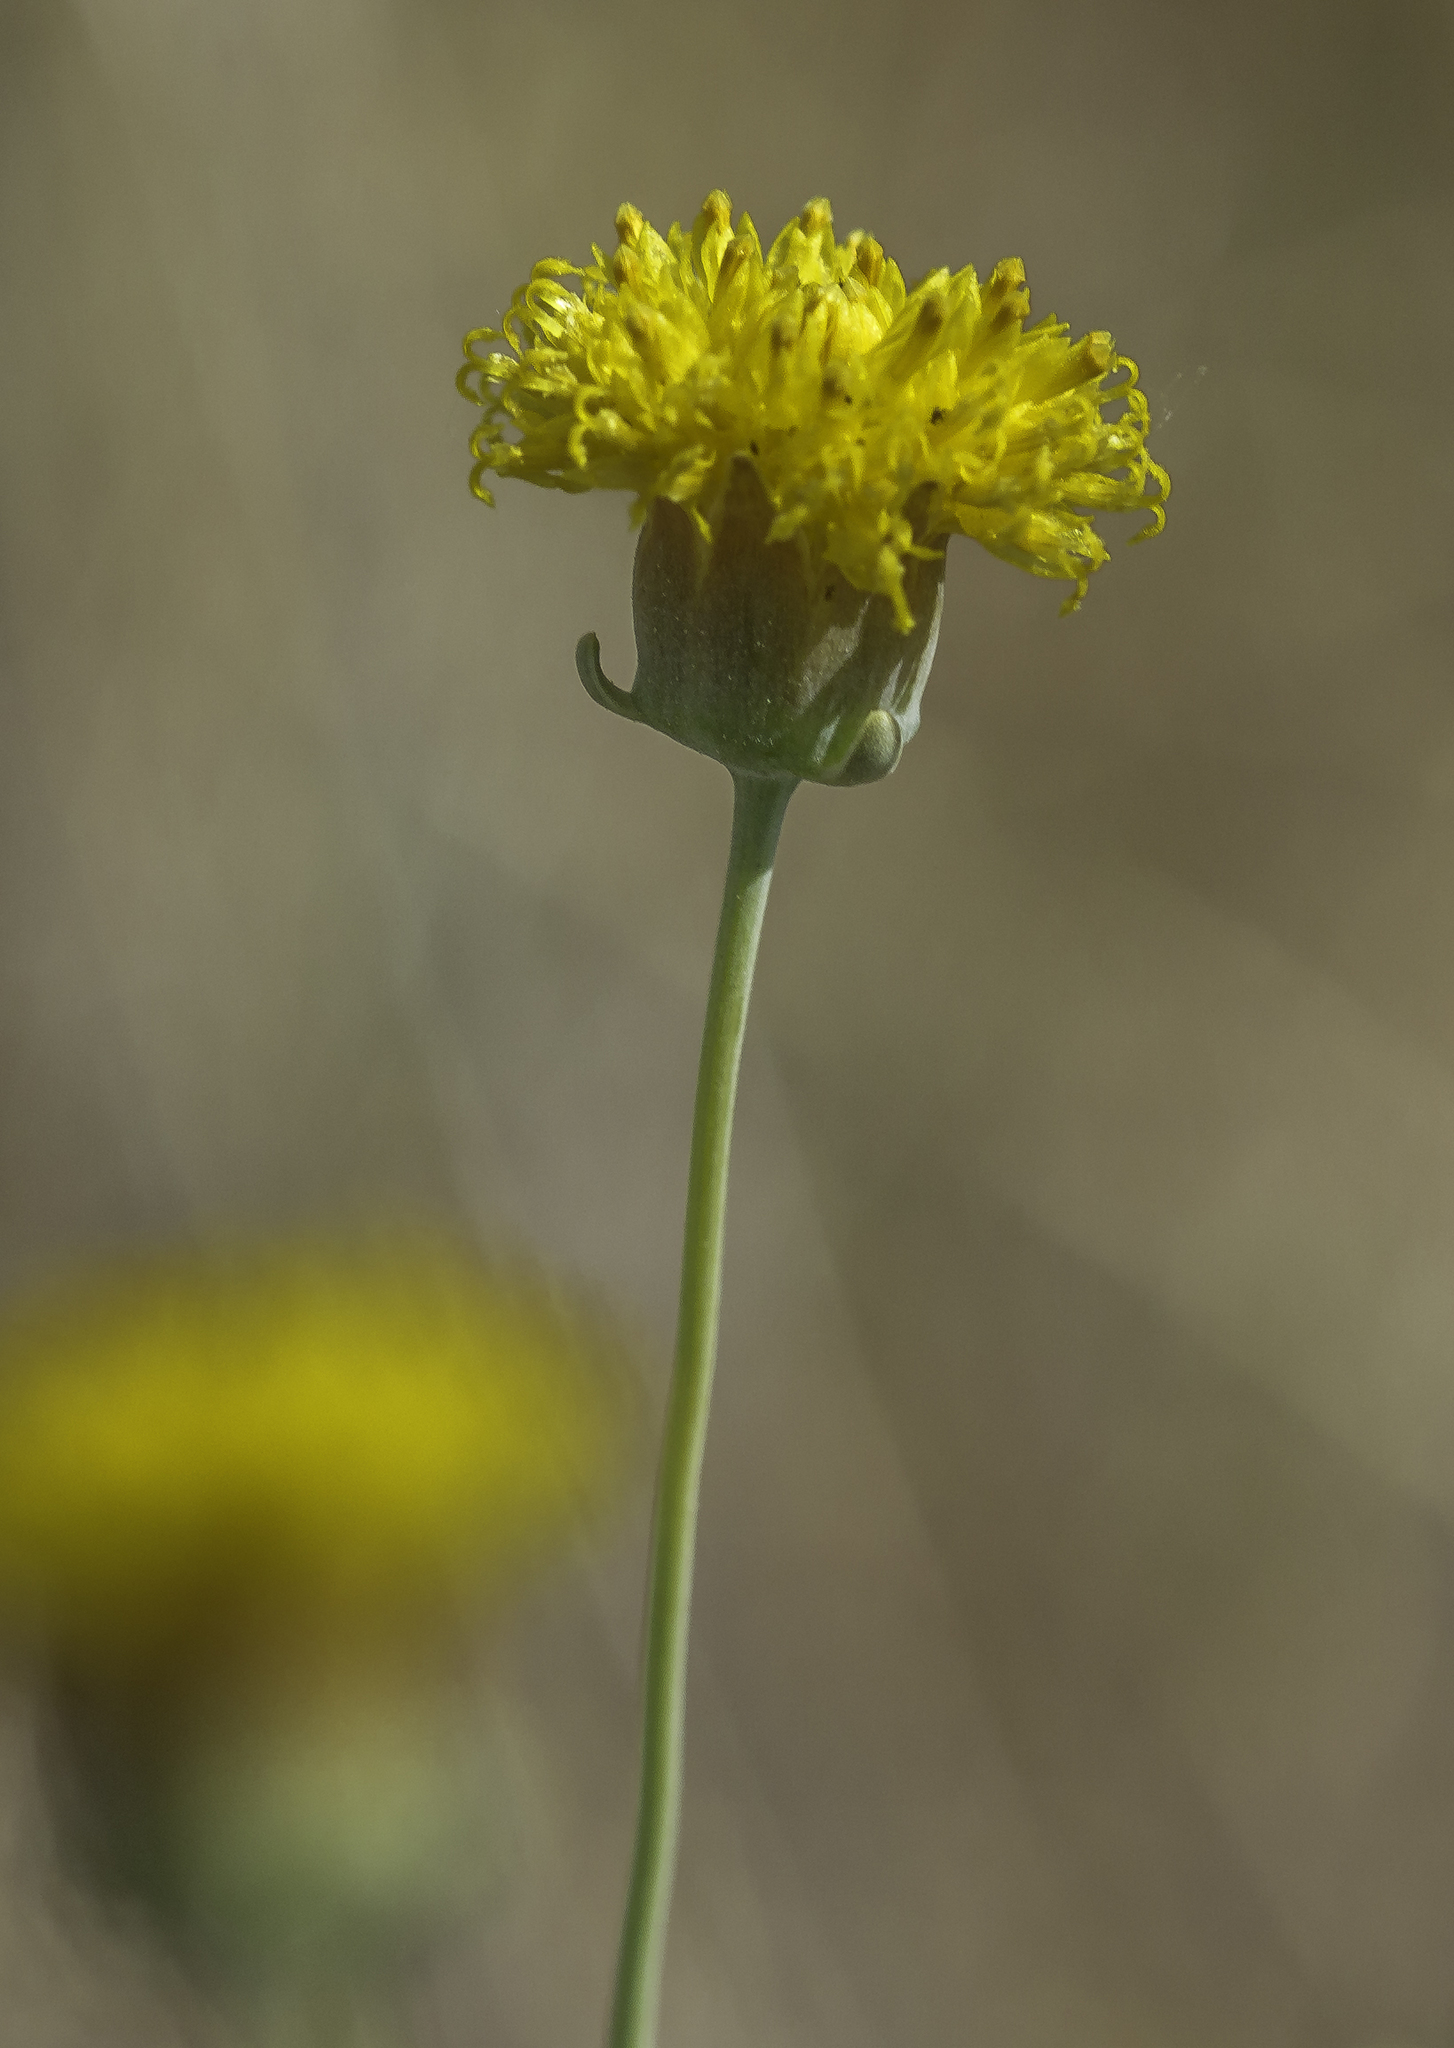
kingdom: Plantae
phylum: Tracheophyta
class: Magnoliopsida
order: Asterales
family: Asteraceae
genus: Thelesperma
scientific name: Thelesperma megapotamicum
